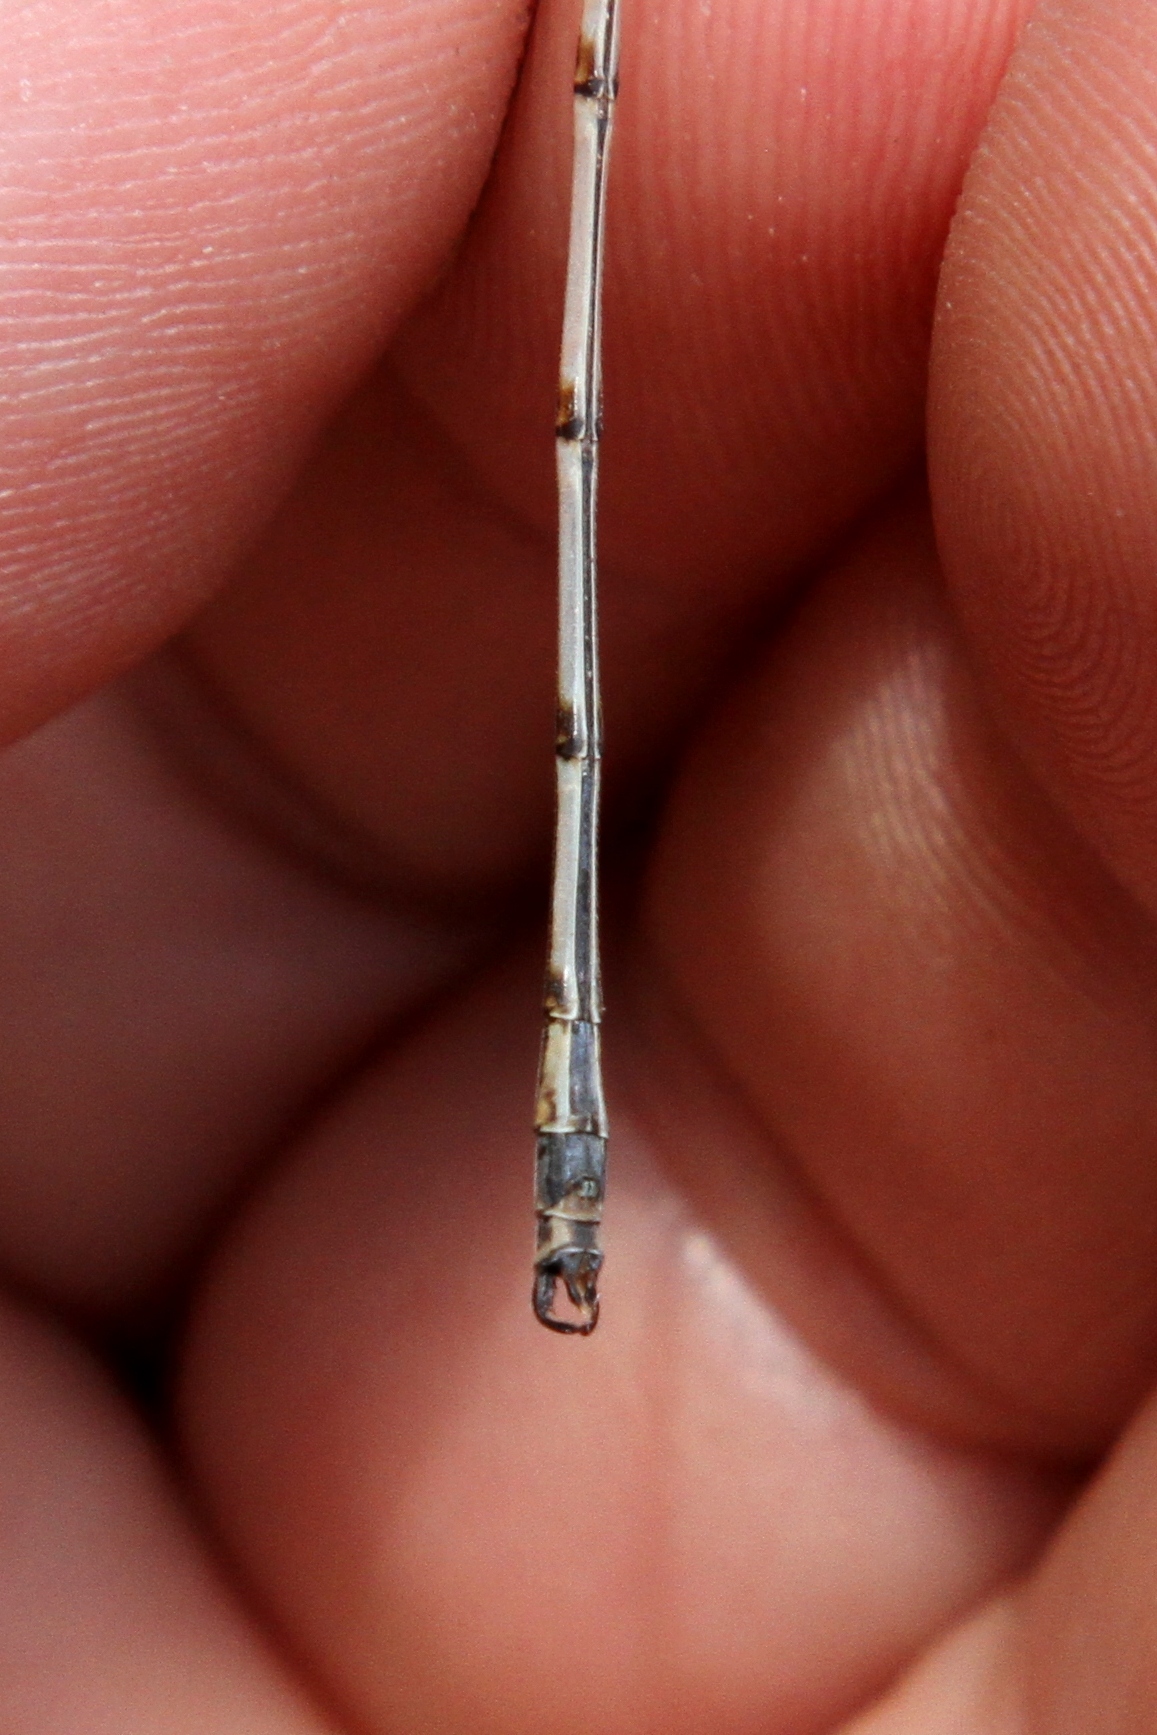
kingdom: Animalia
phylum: Arthropoda
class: Insecta
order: Odonata
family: Lestidae
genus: Lestes
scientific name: Lestes rectangularis
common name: Slender spreadwing
